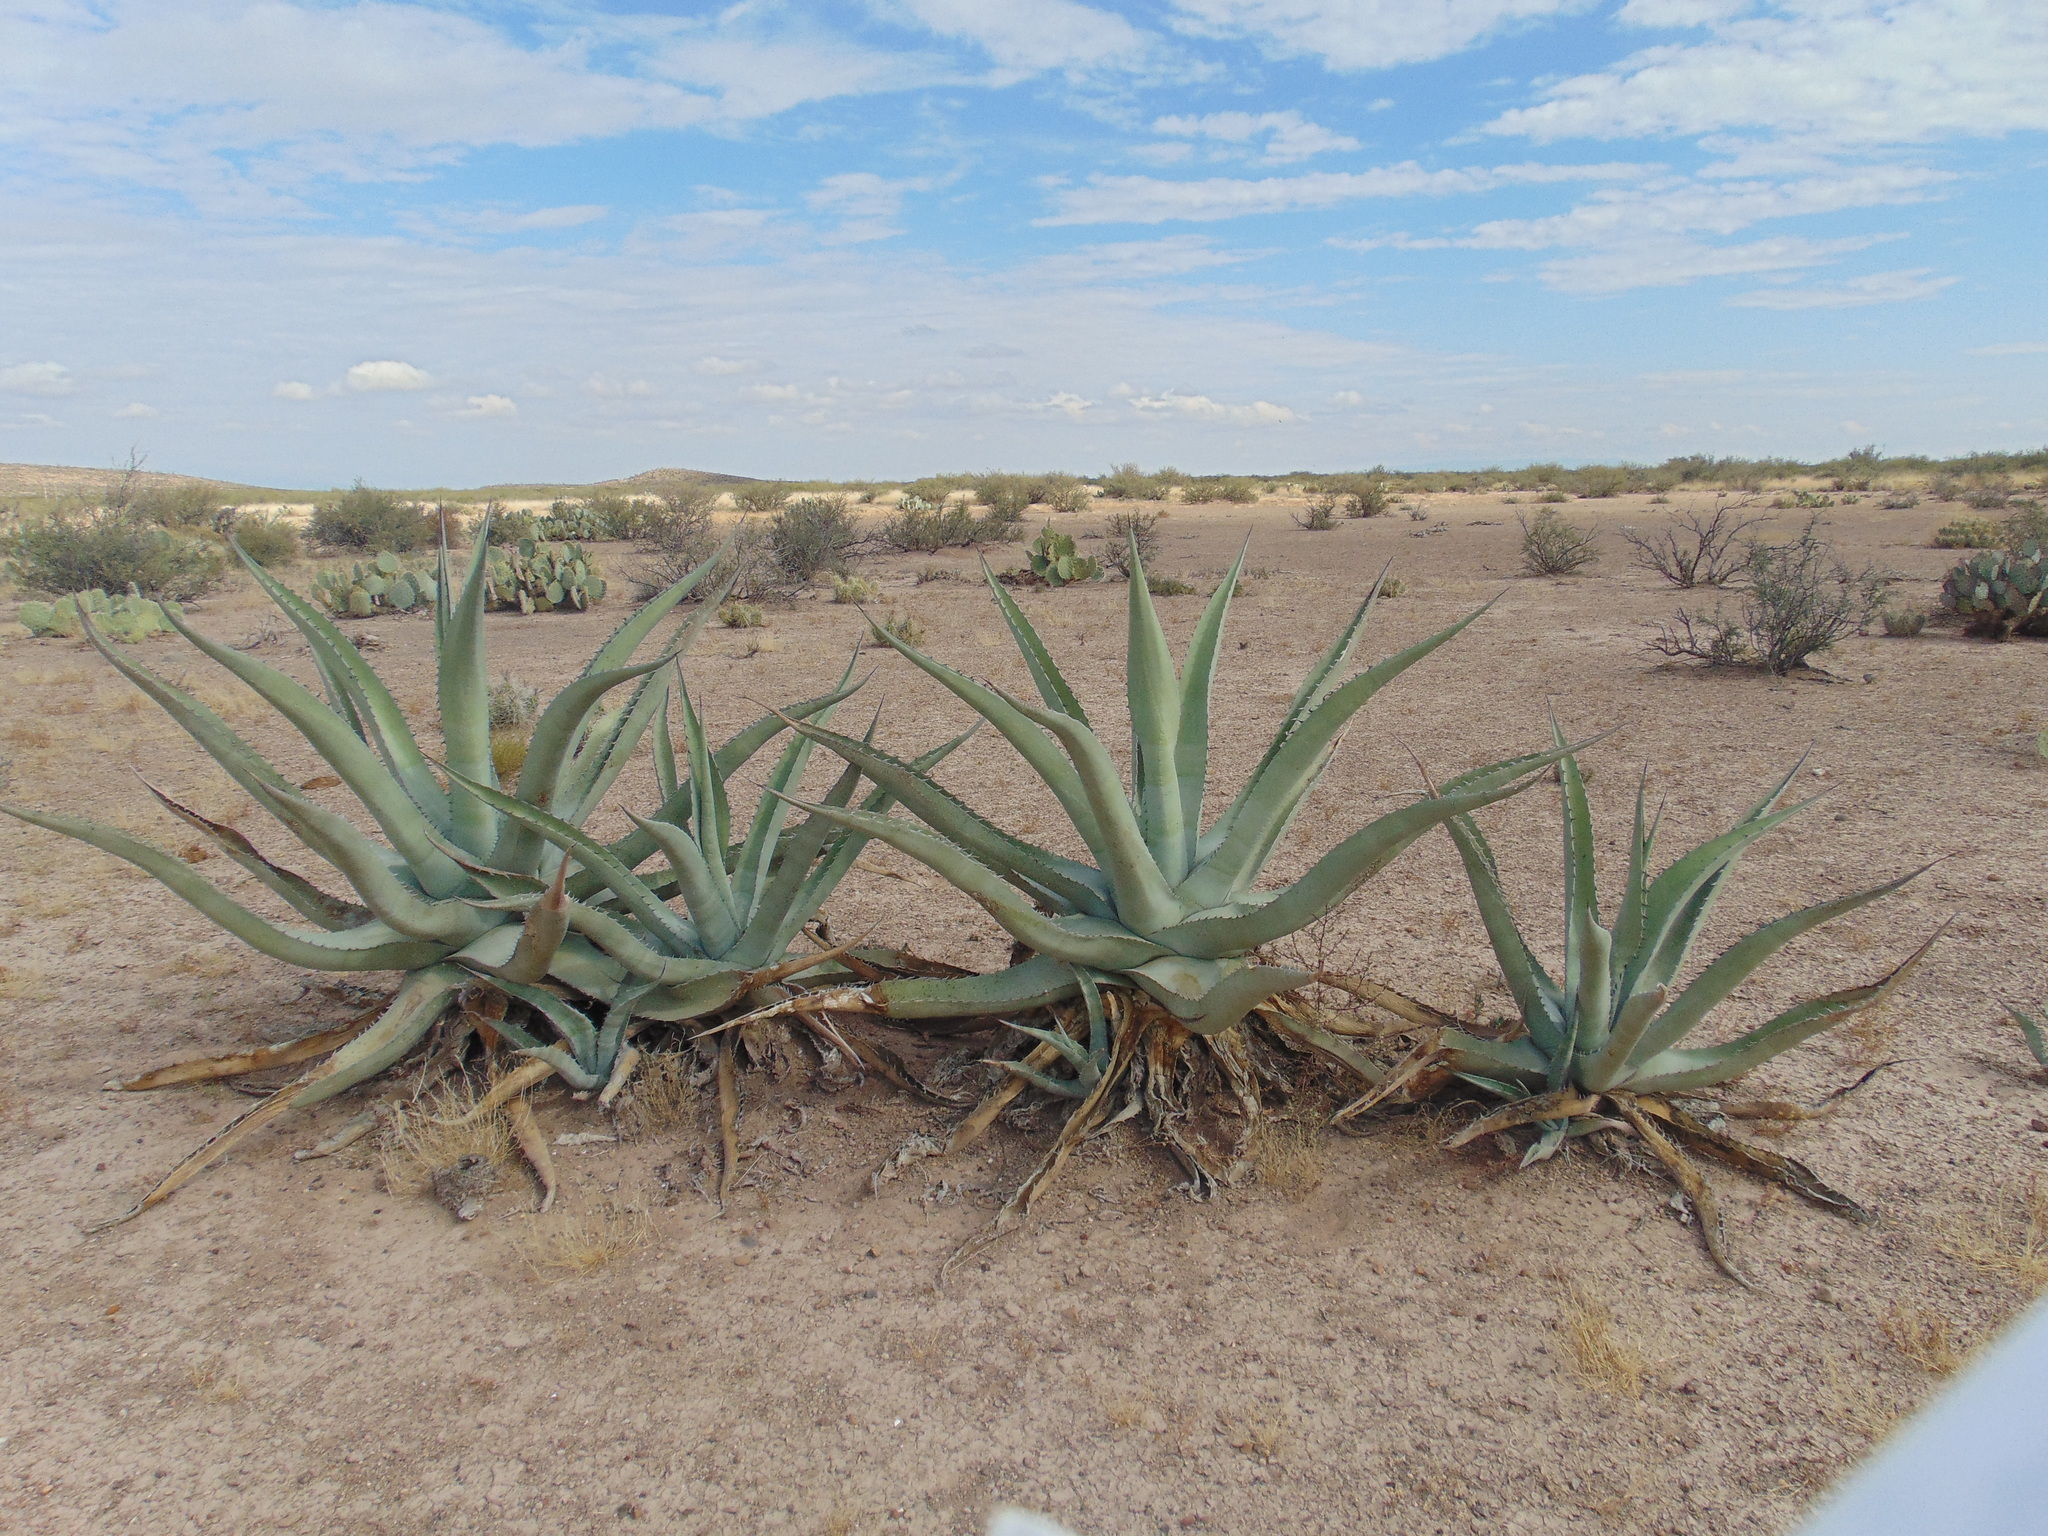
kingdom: Plantae
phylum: Tracheophyta
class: Liliopsida
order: Asparagales
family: Asparagaceae
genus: Agave
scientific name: Agave asperrima
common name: Rough agave
